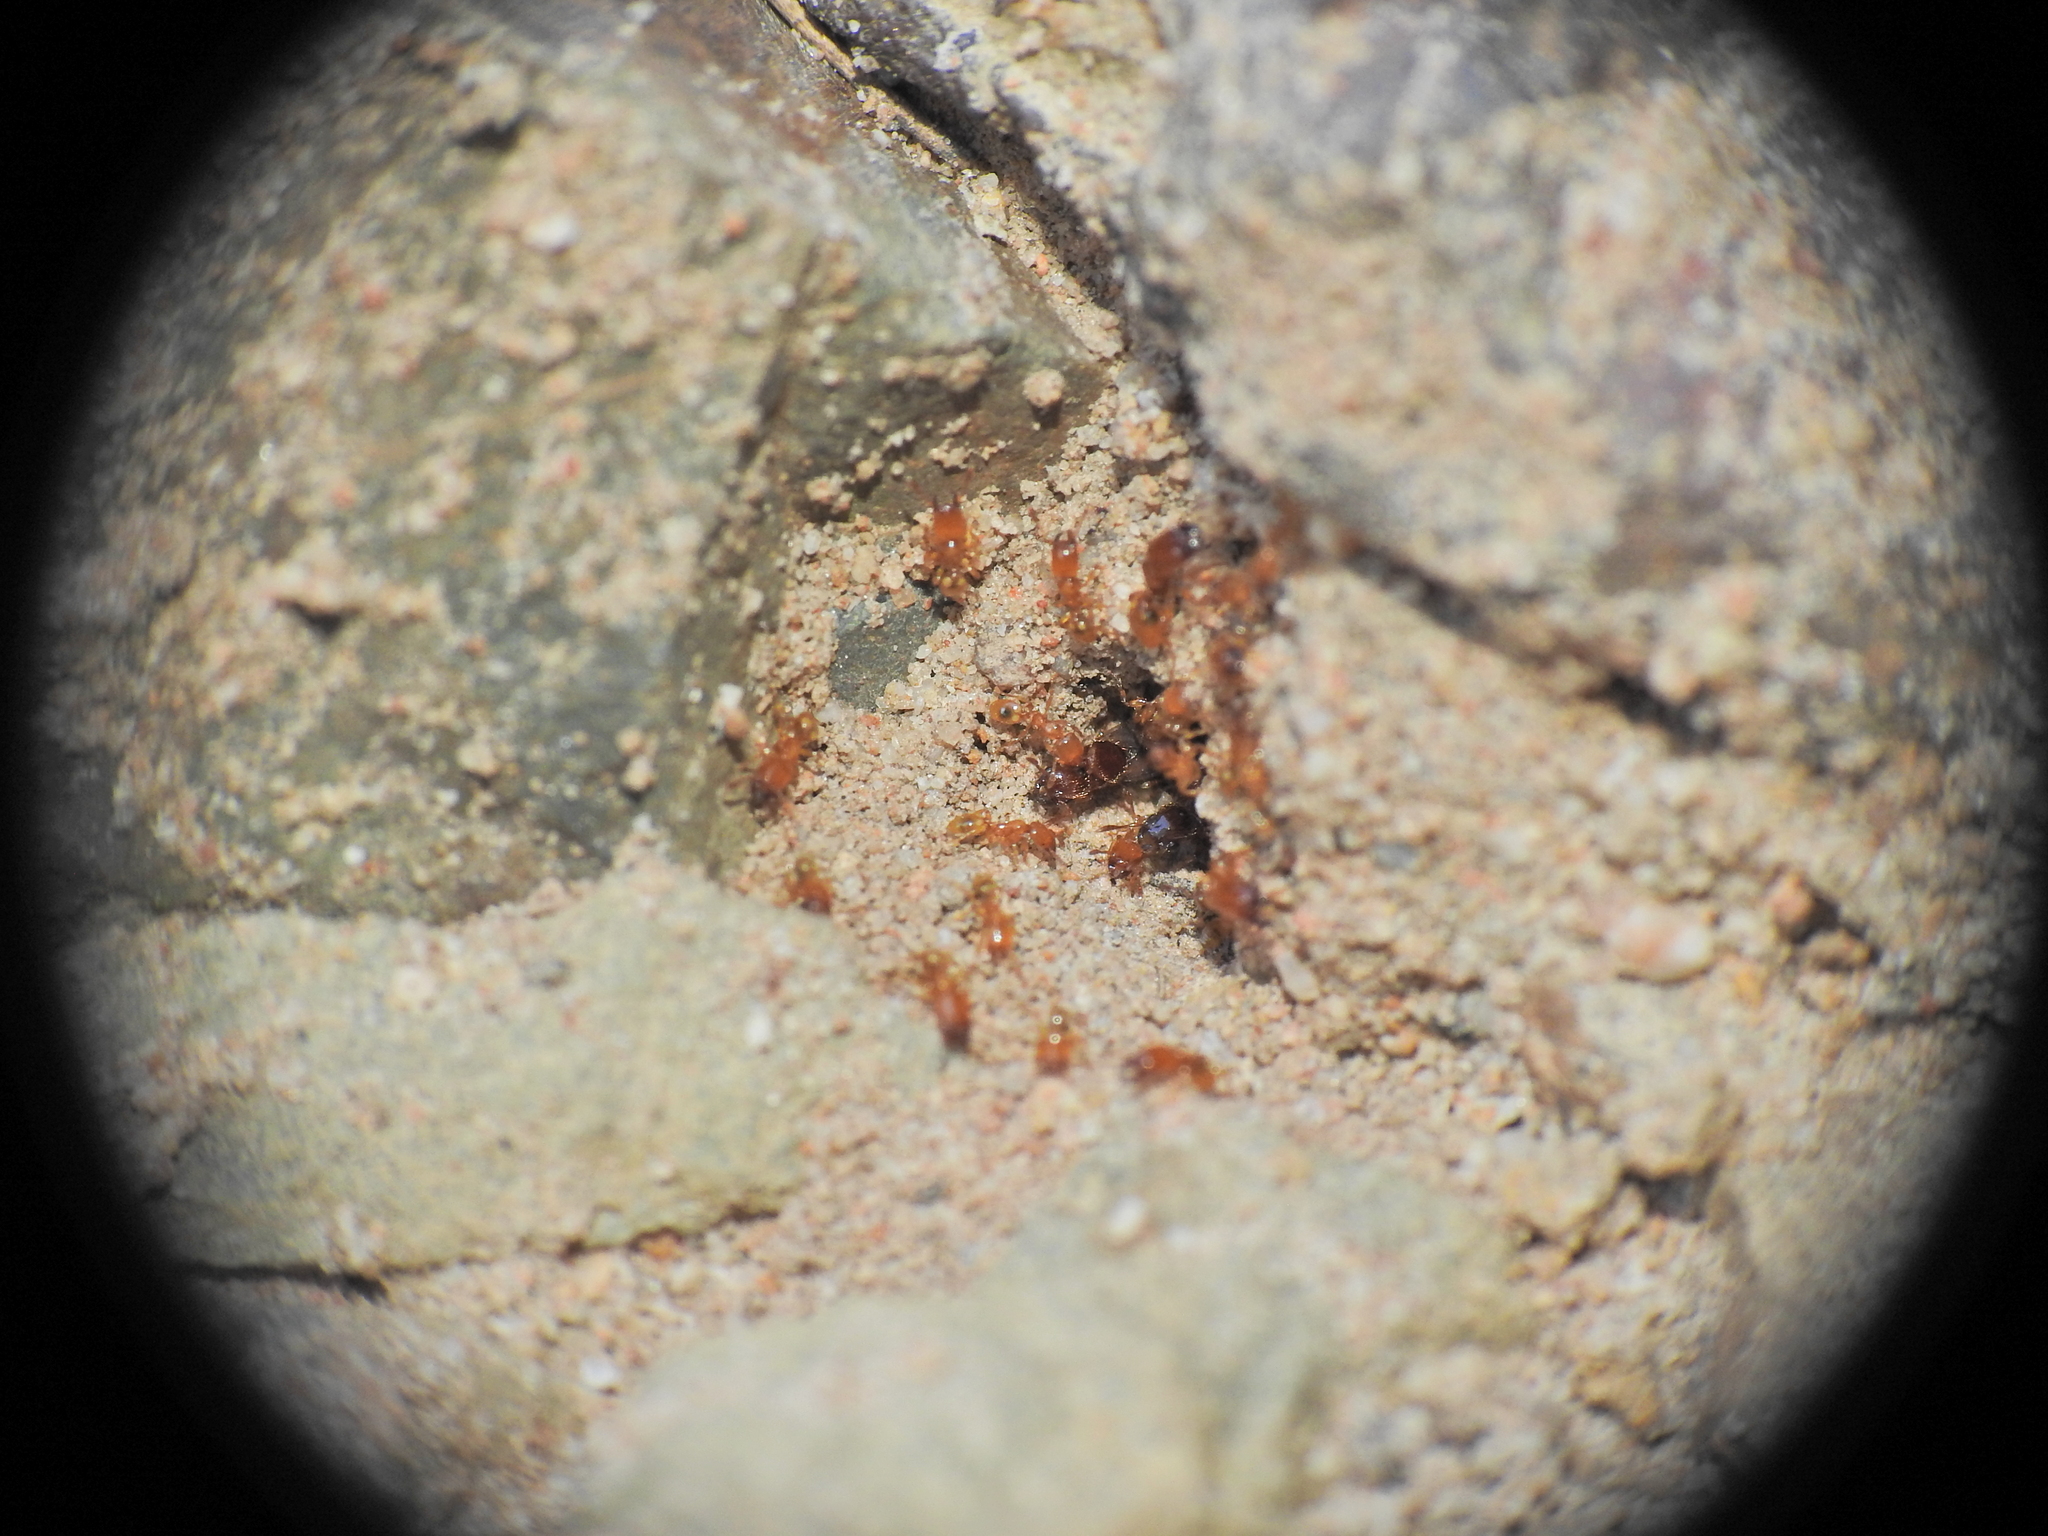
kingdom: Animalia
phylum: Arthropoda
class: Insecta
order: Hymenoptera
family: Formicidae
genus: Pheidole
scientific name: Pheidole
